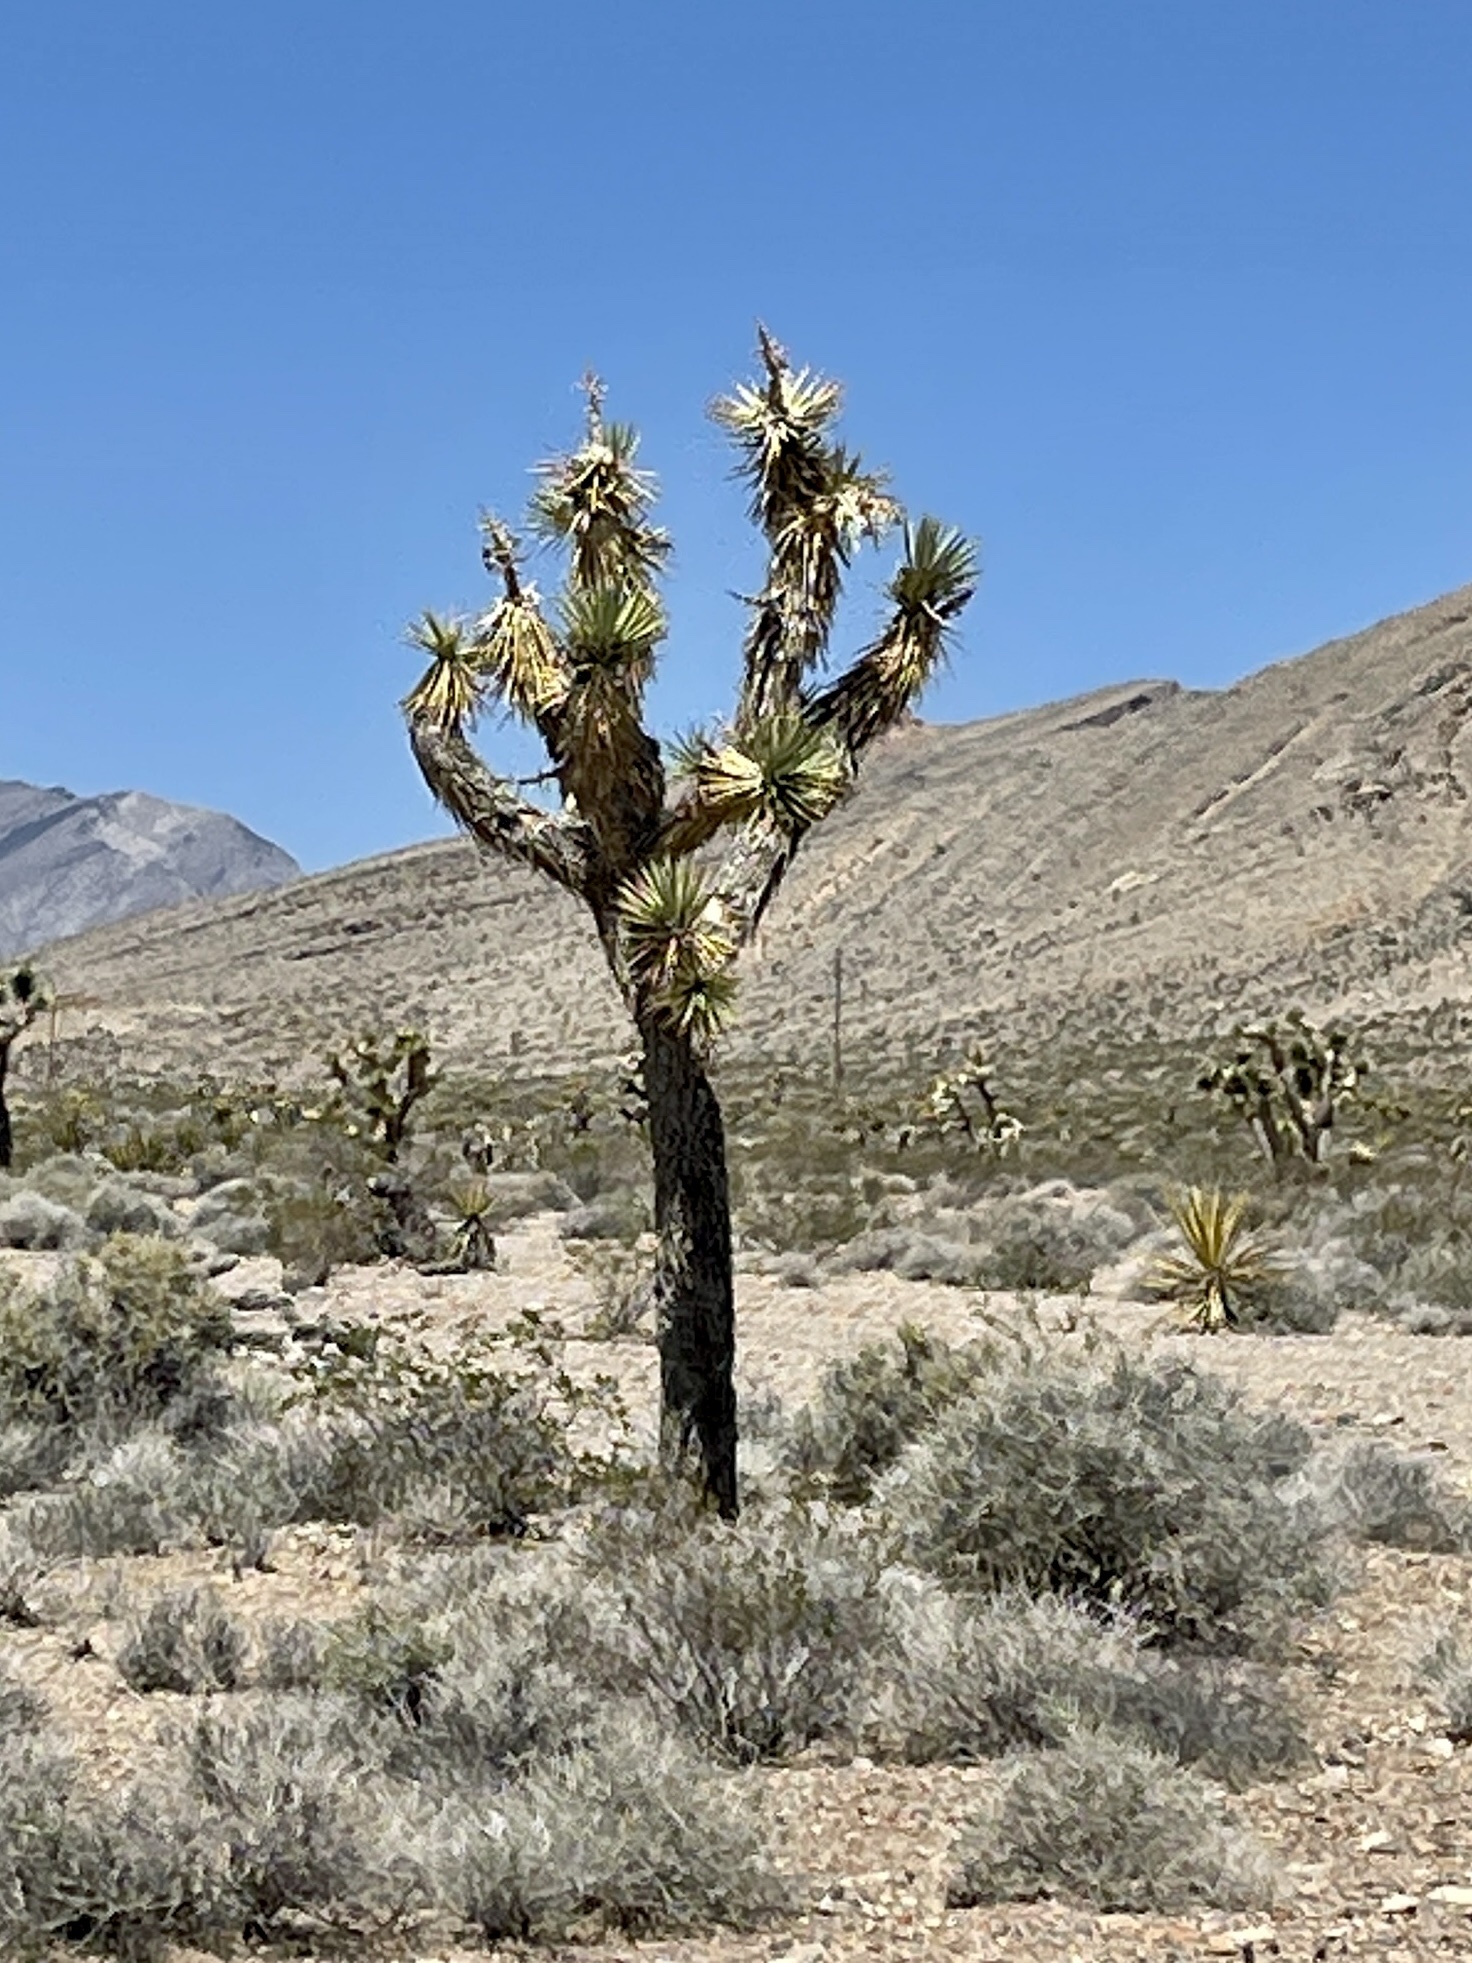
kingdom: Plantae
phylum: Tracheophyta
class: Liliopsida
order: Asparagales
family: Asparagaceae
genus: Yucca
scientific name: Yucca brevifolia
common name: Joshua tree
